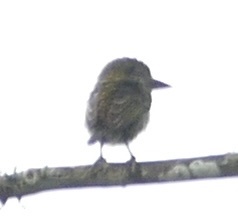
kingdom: Animalia
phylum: Chordata
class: Aves
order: Piciformes
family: Lybiidae
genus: Pogoniulus
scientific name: Pogoniulus scolopaceus
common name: Speckled tinkerbird
